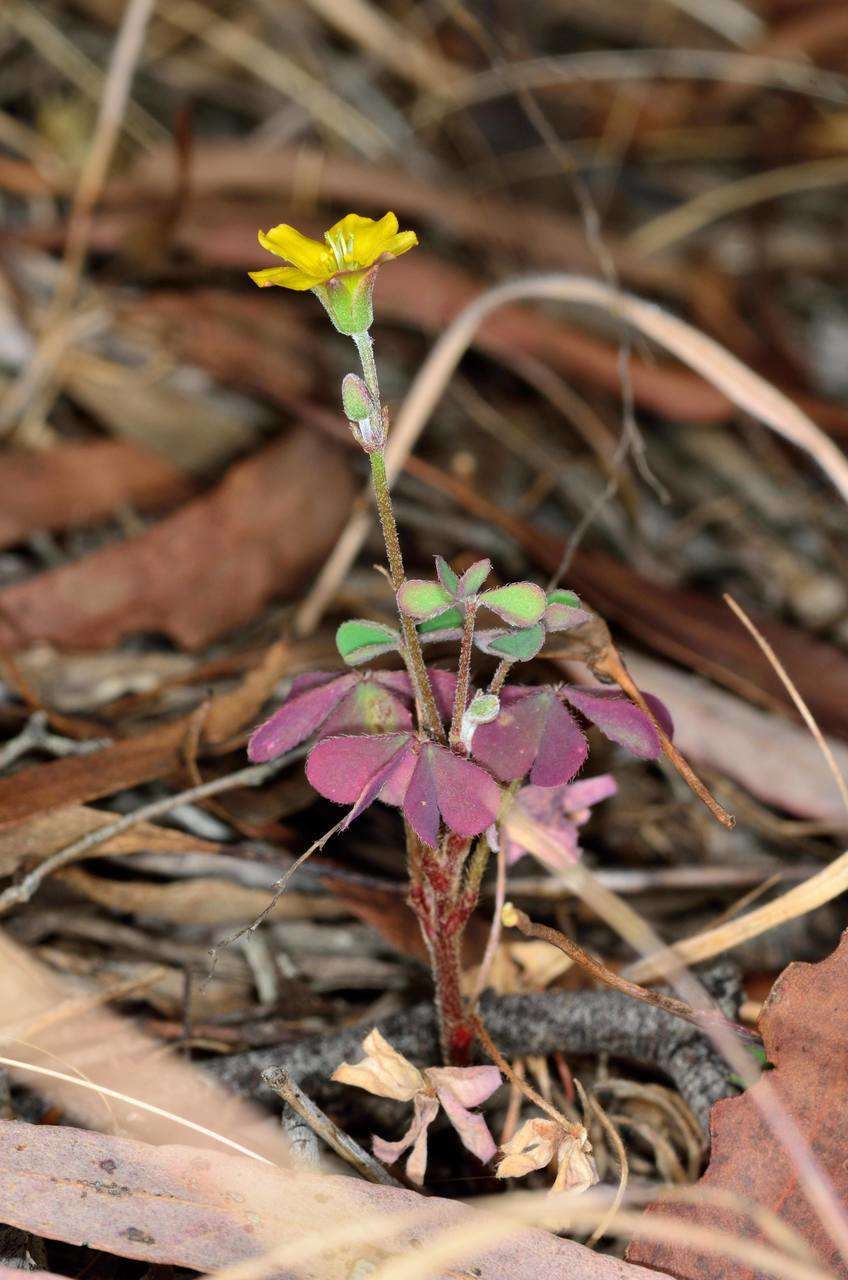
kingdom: Plantae
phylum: Tracheophyta
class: Magnoliopsida
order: Oxalidales
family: Oxalidaceae
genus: Oxalis
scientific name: Oxalis corniculata
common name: Procumbent yellow-sorrel
